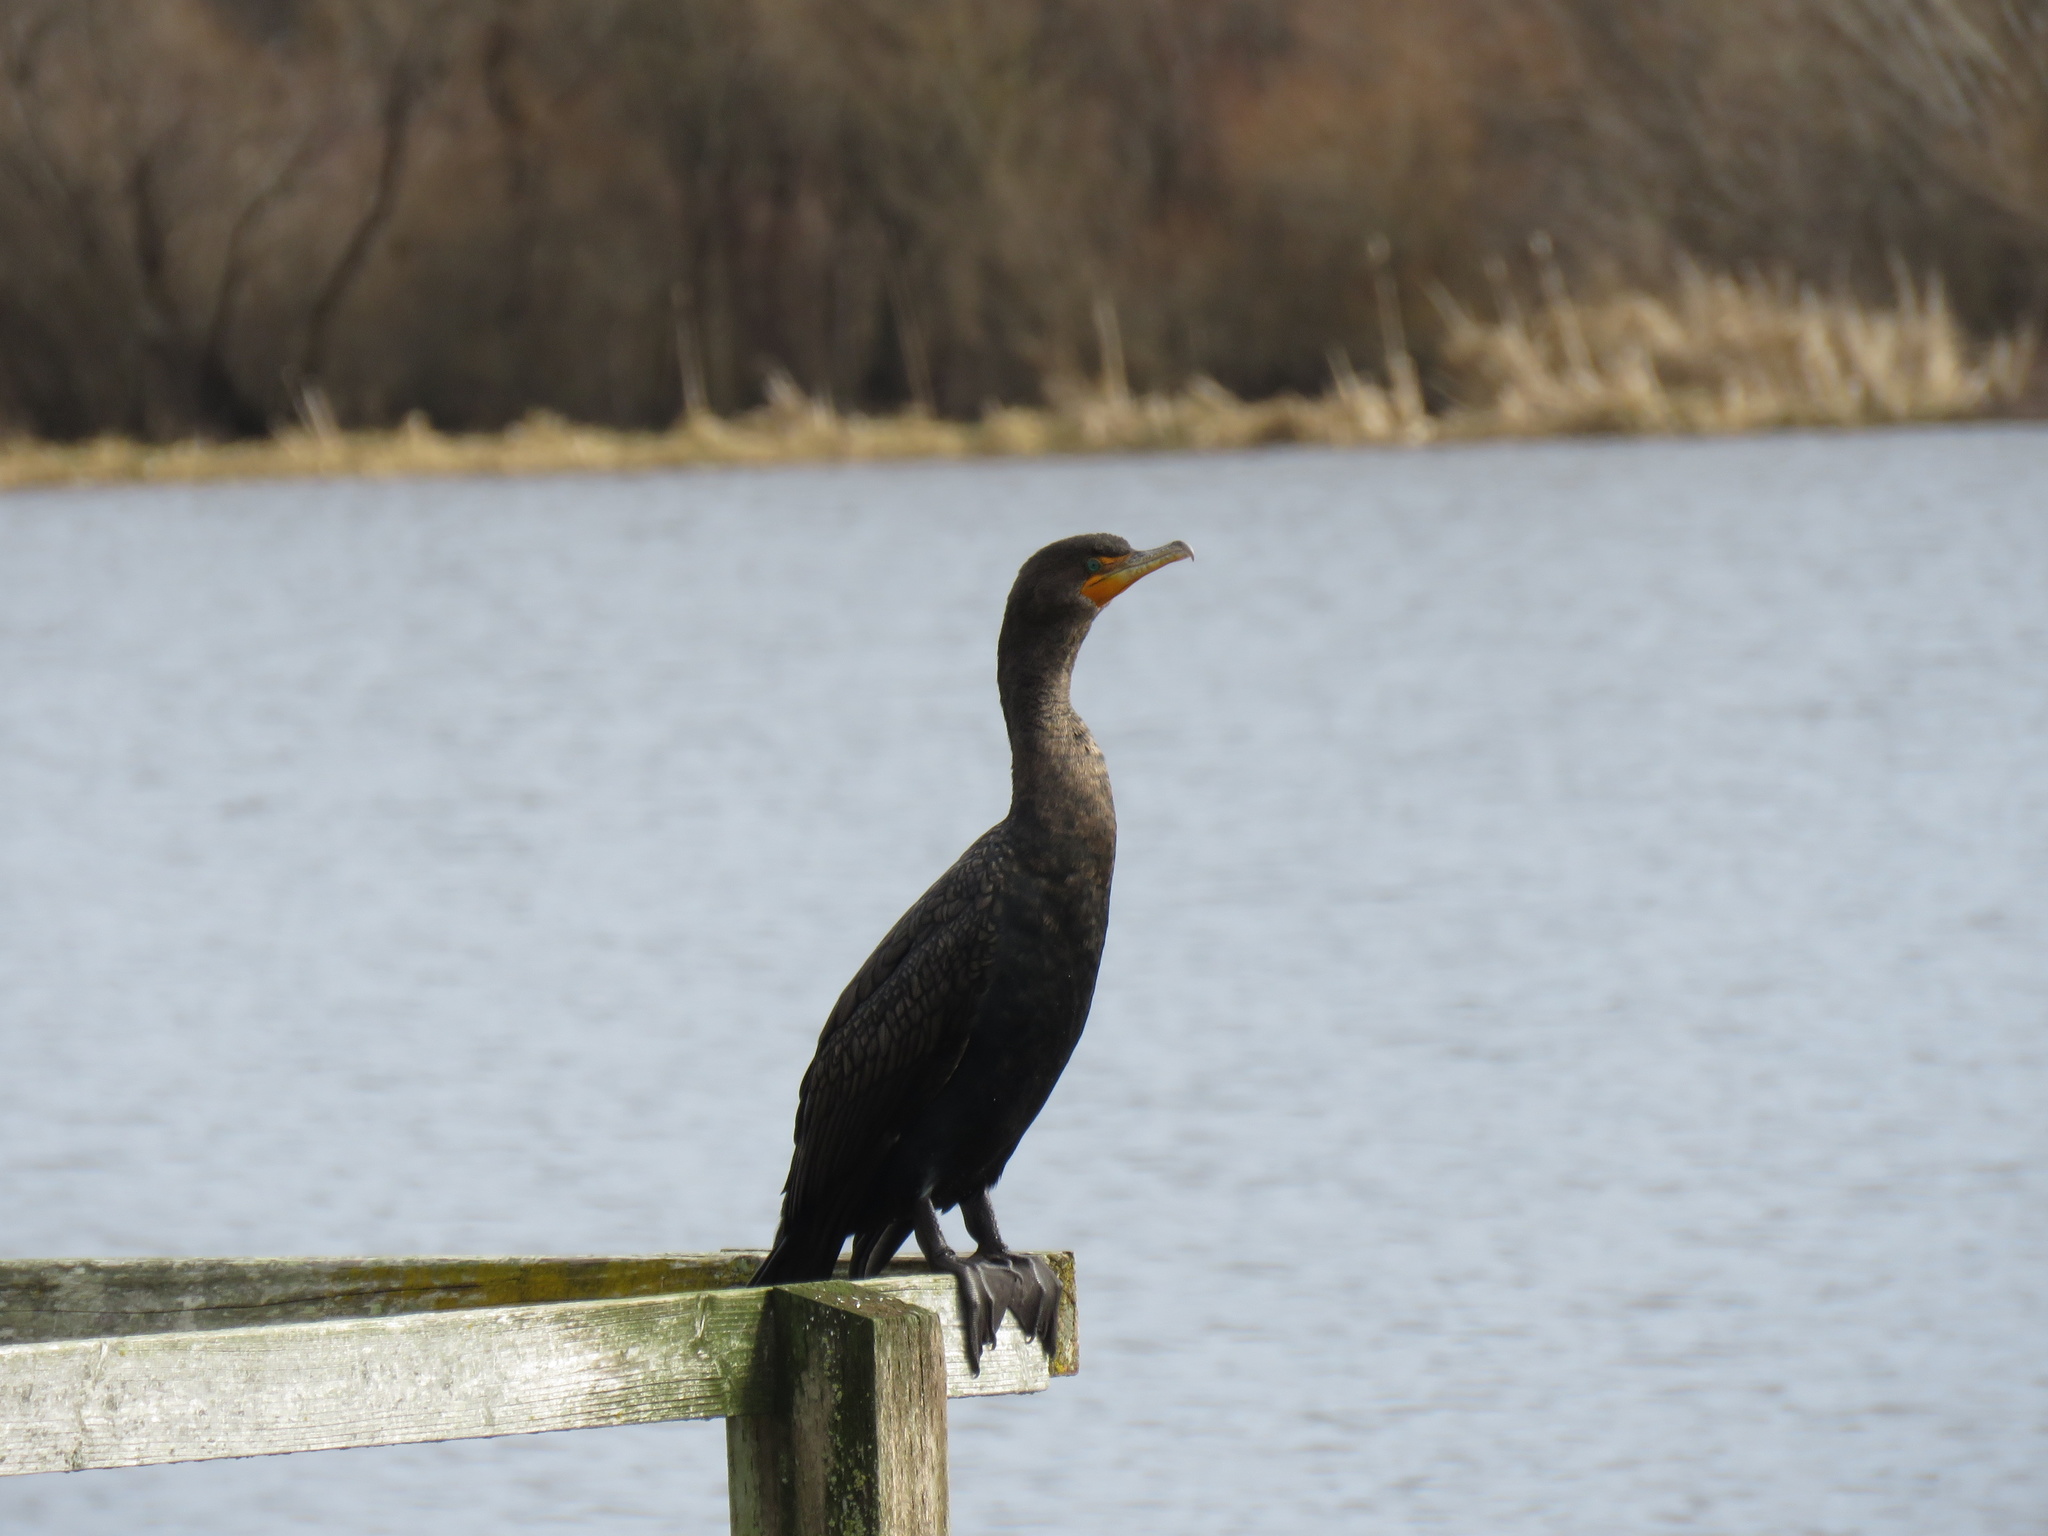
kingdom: Animalia
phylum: Chordata
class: Aves
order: Suliformes
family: Phalacrocoracidae
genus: Phalacrocorax
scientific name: Phalacrocorax auritus
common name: Double-crested cormorant
